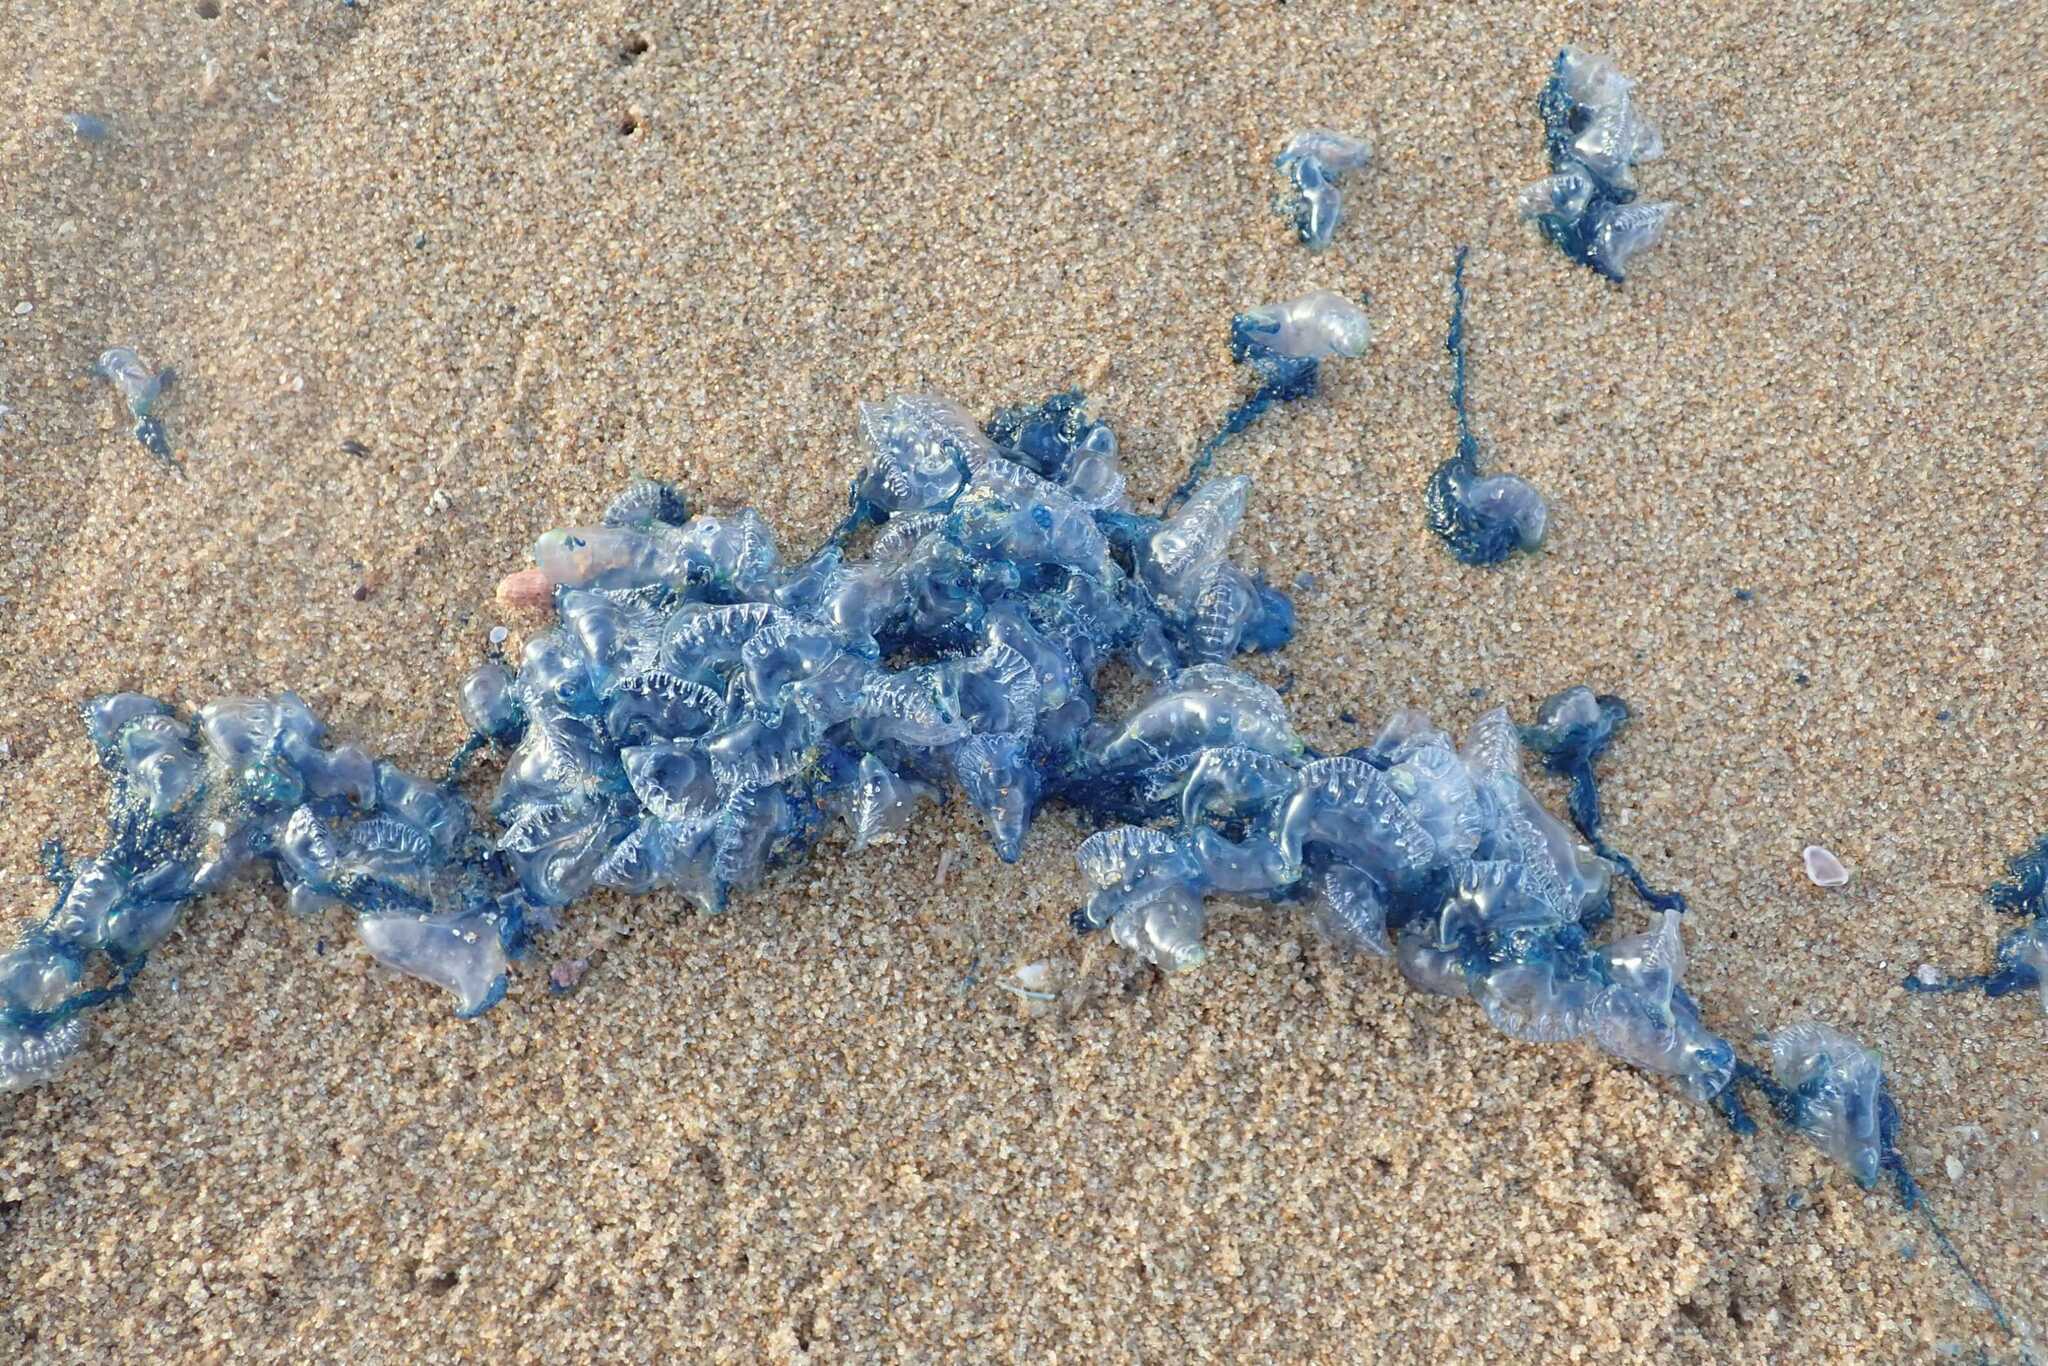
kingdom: Animalia
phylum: Cnidaria
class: Hydrozoa
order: Siphonophorae
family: Physaliidae
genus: Physalia
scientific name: Physalia physalis
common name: Portuguese man-of-war
